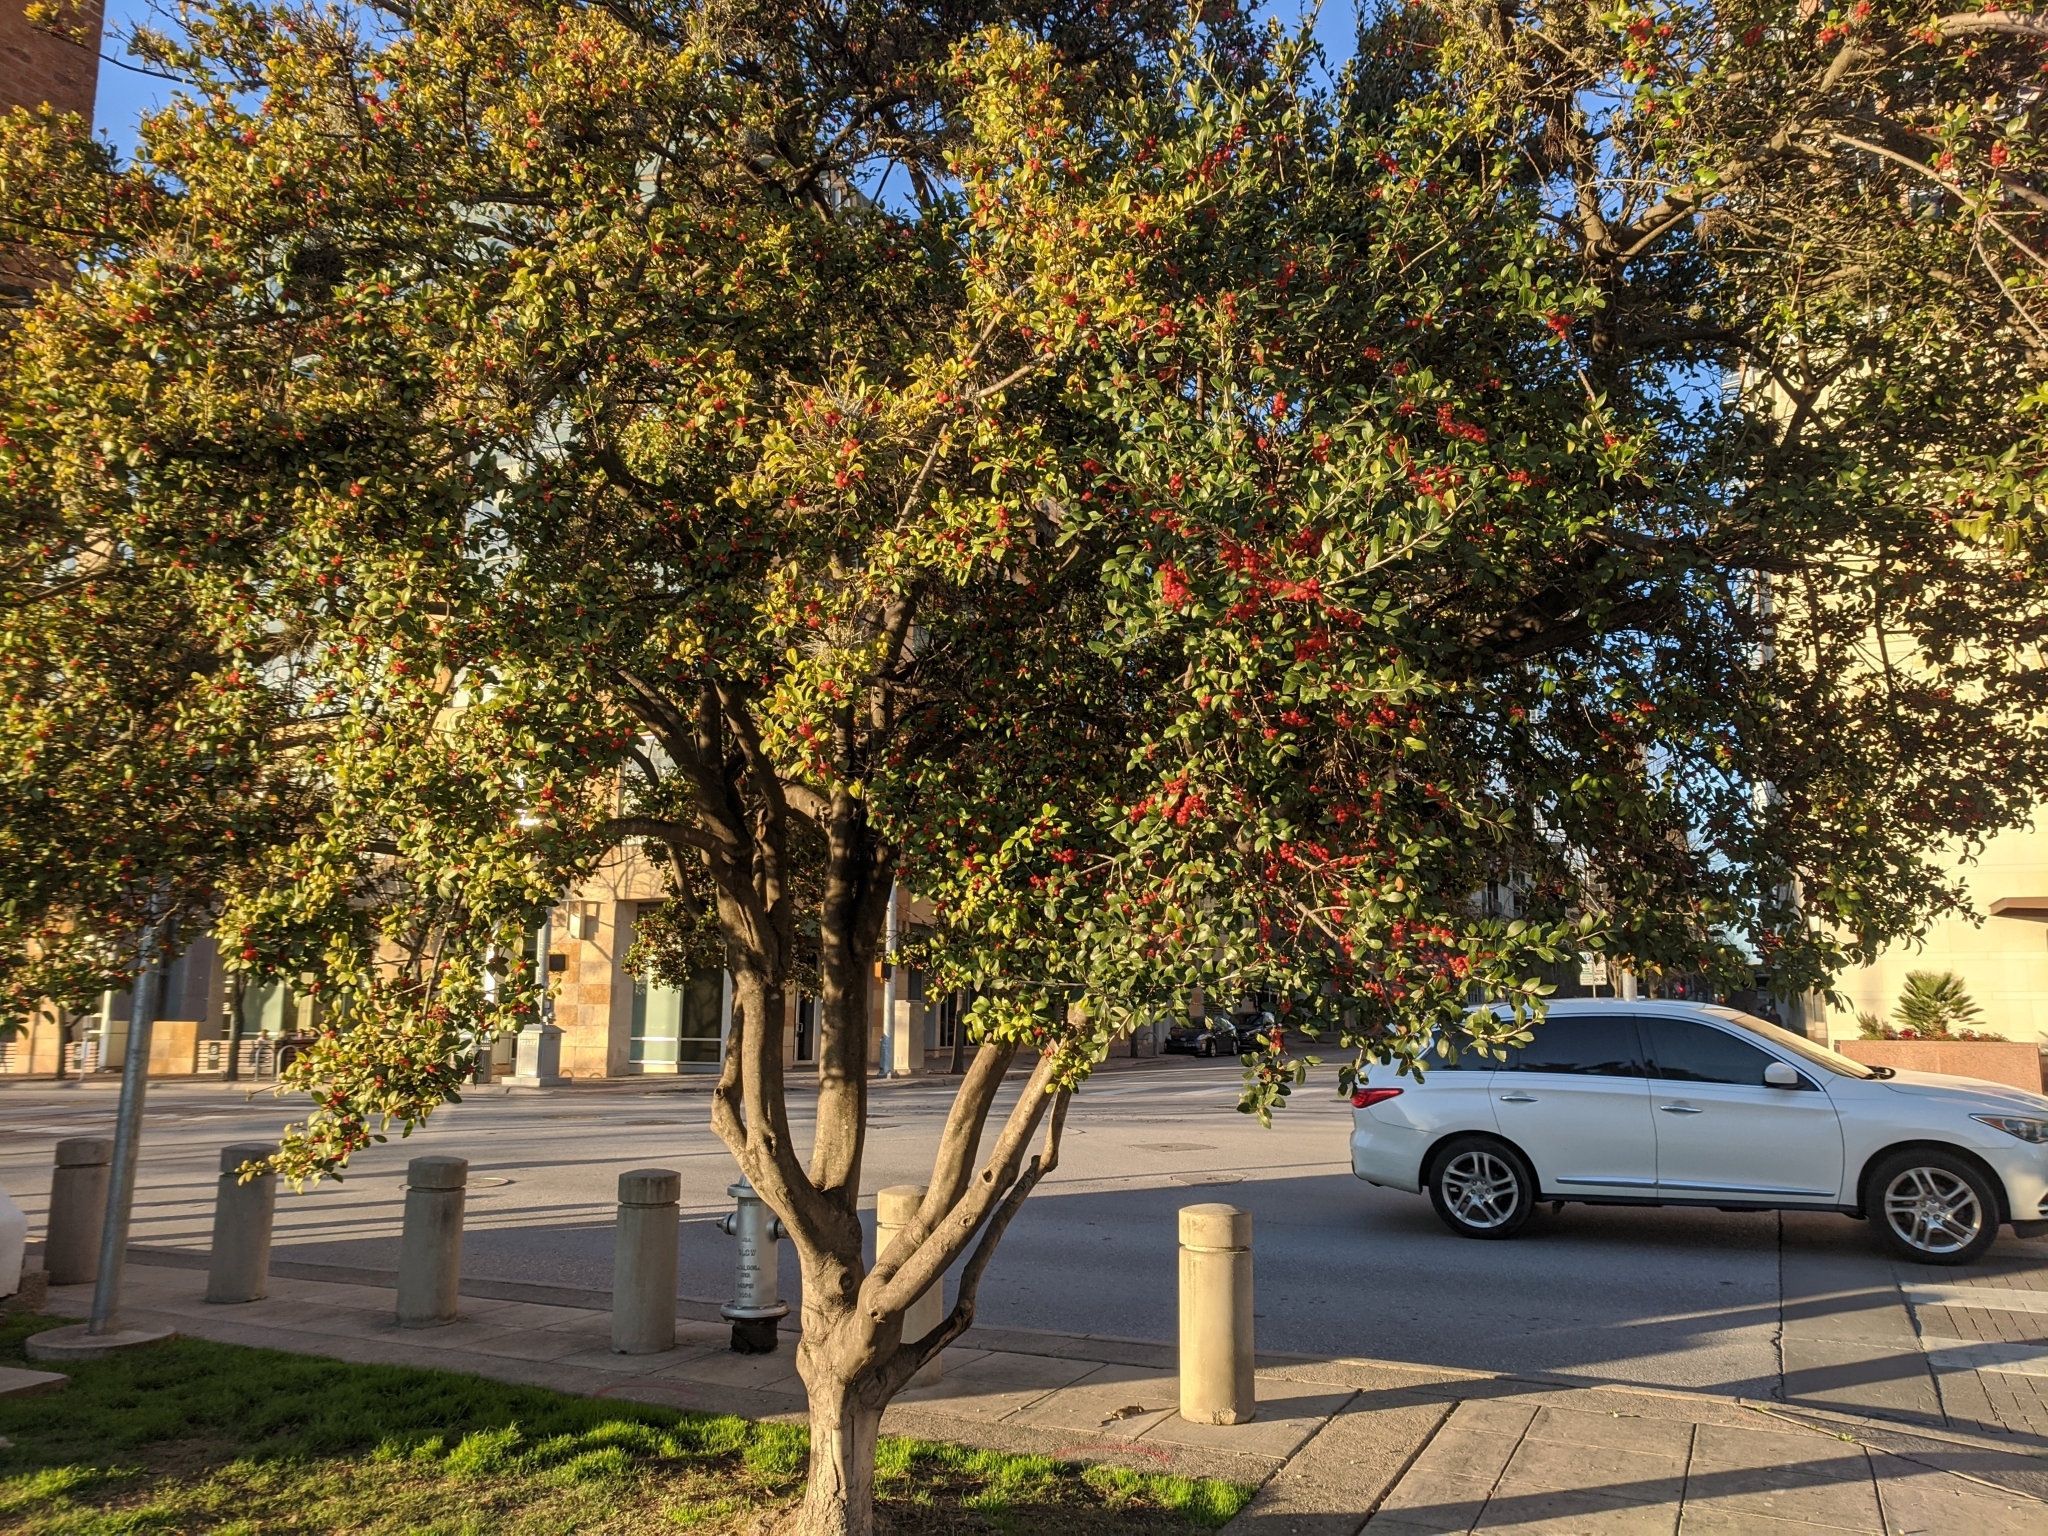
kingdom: Plantae
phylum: Tracheophyta
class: Magnoliopsida
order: Aquifoliales
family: Aquifoliaceae
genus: Ilex
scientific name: Ilex vomitoria
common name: Yaupon holly
